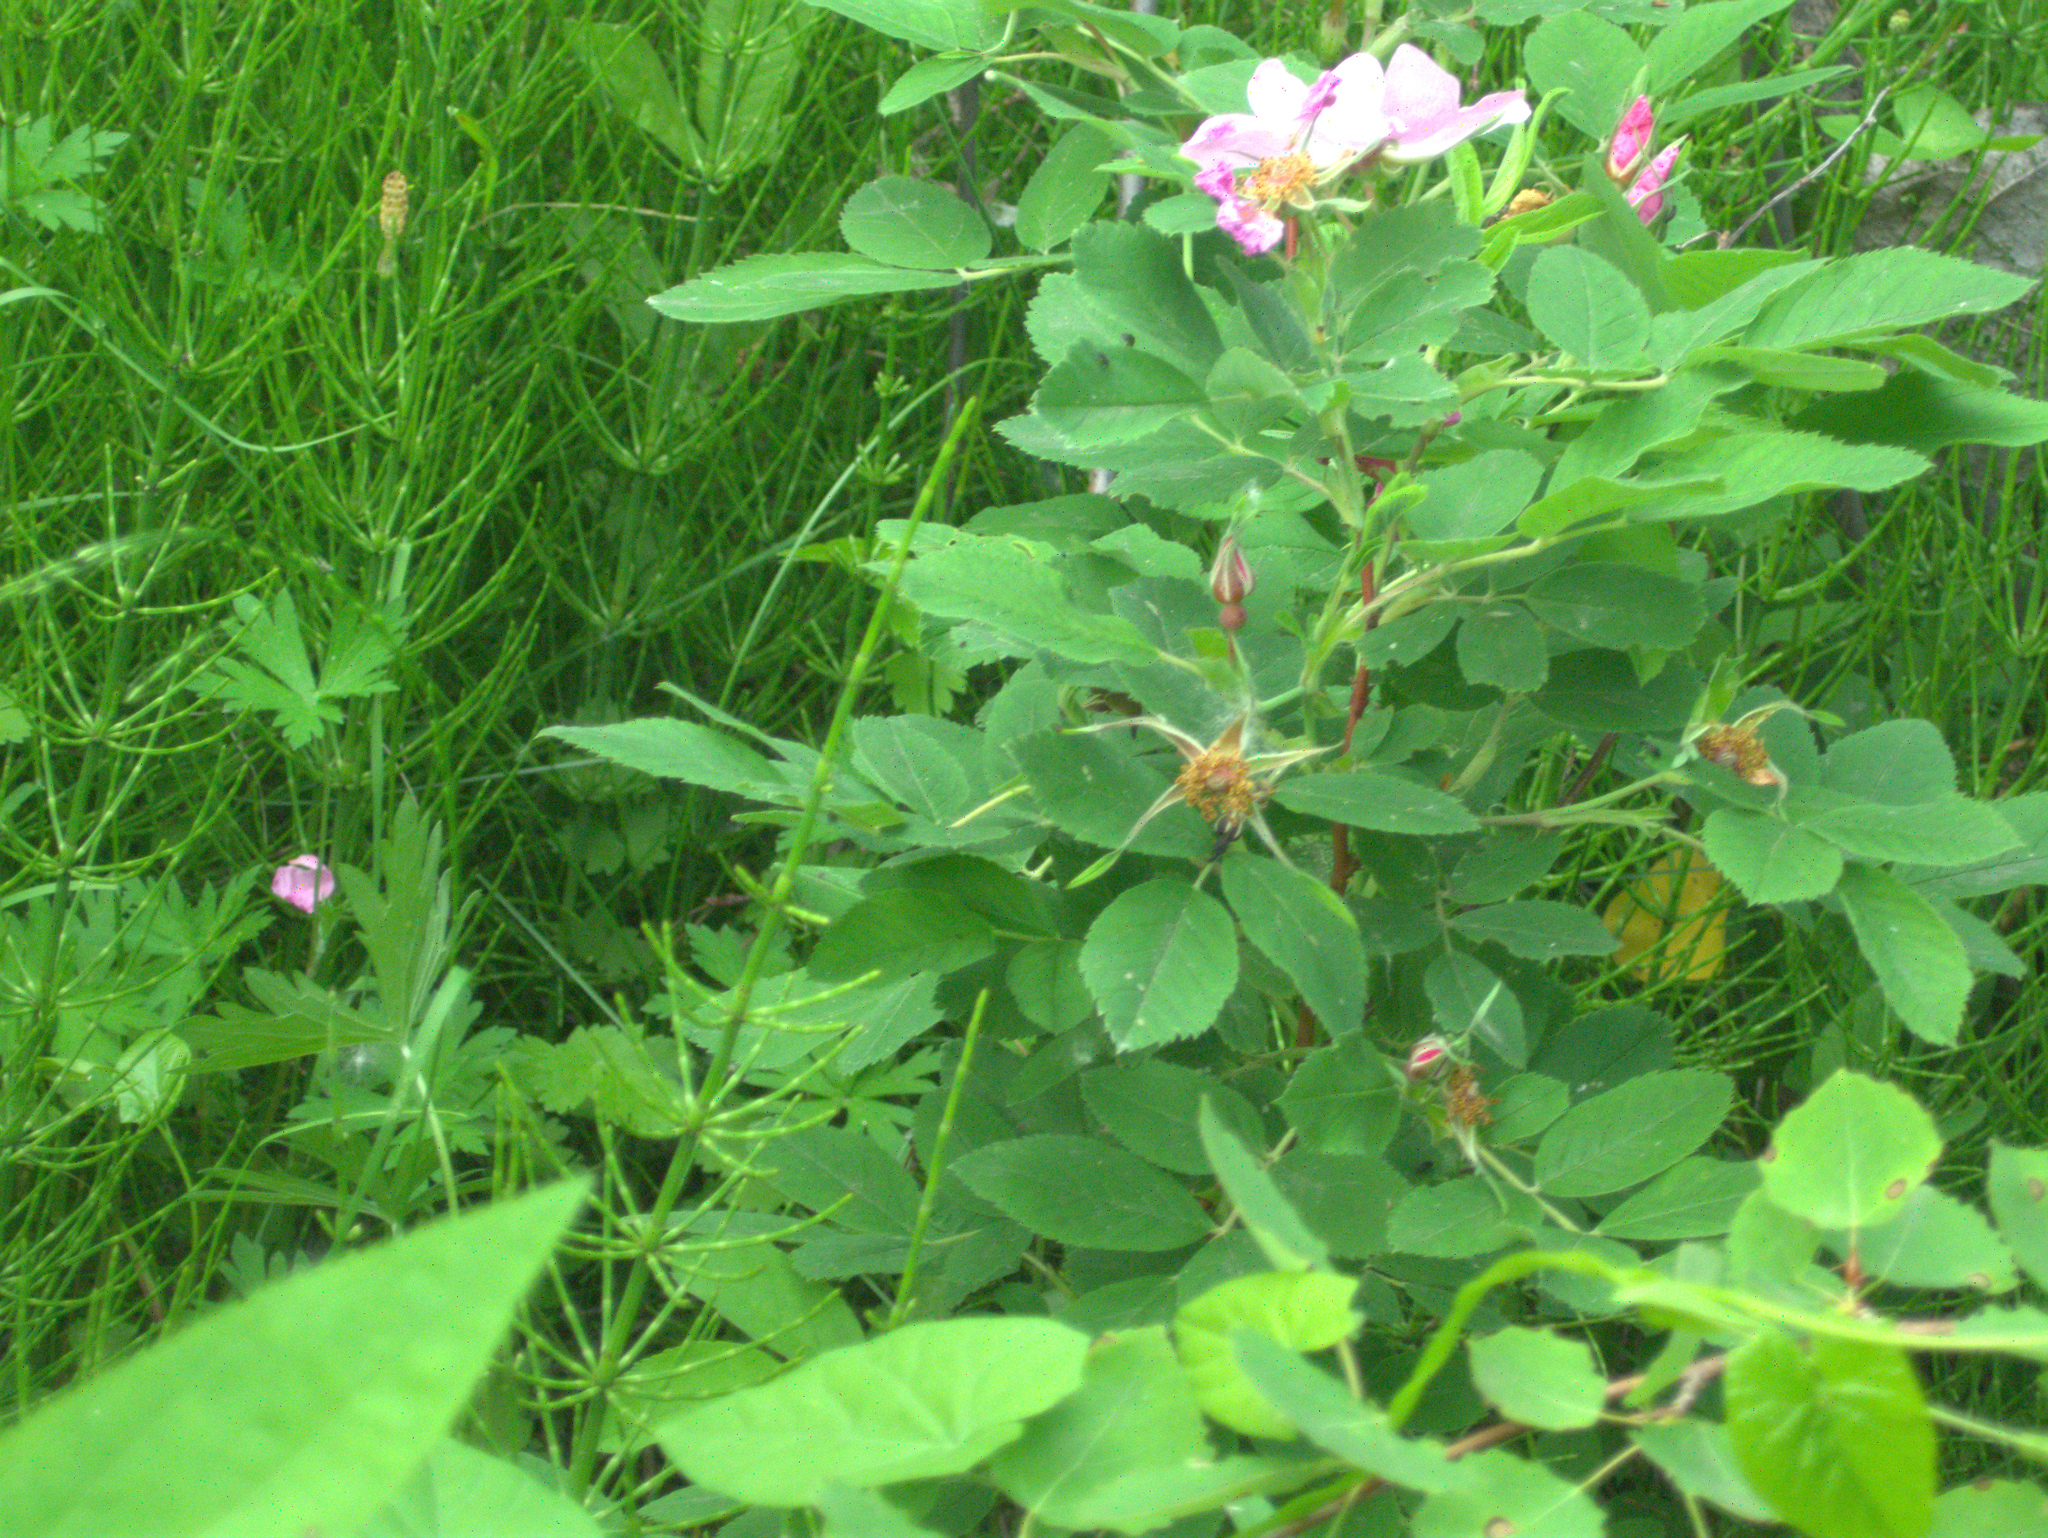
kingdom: Plantae
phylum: Tracheophyta
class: Magnoliopsida
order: Rosales
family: Rosaceae
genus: Rosa
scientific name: Rosa
